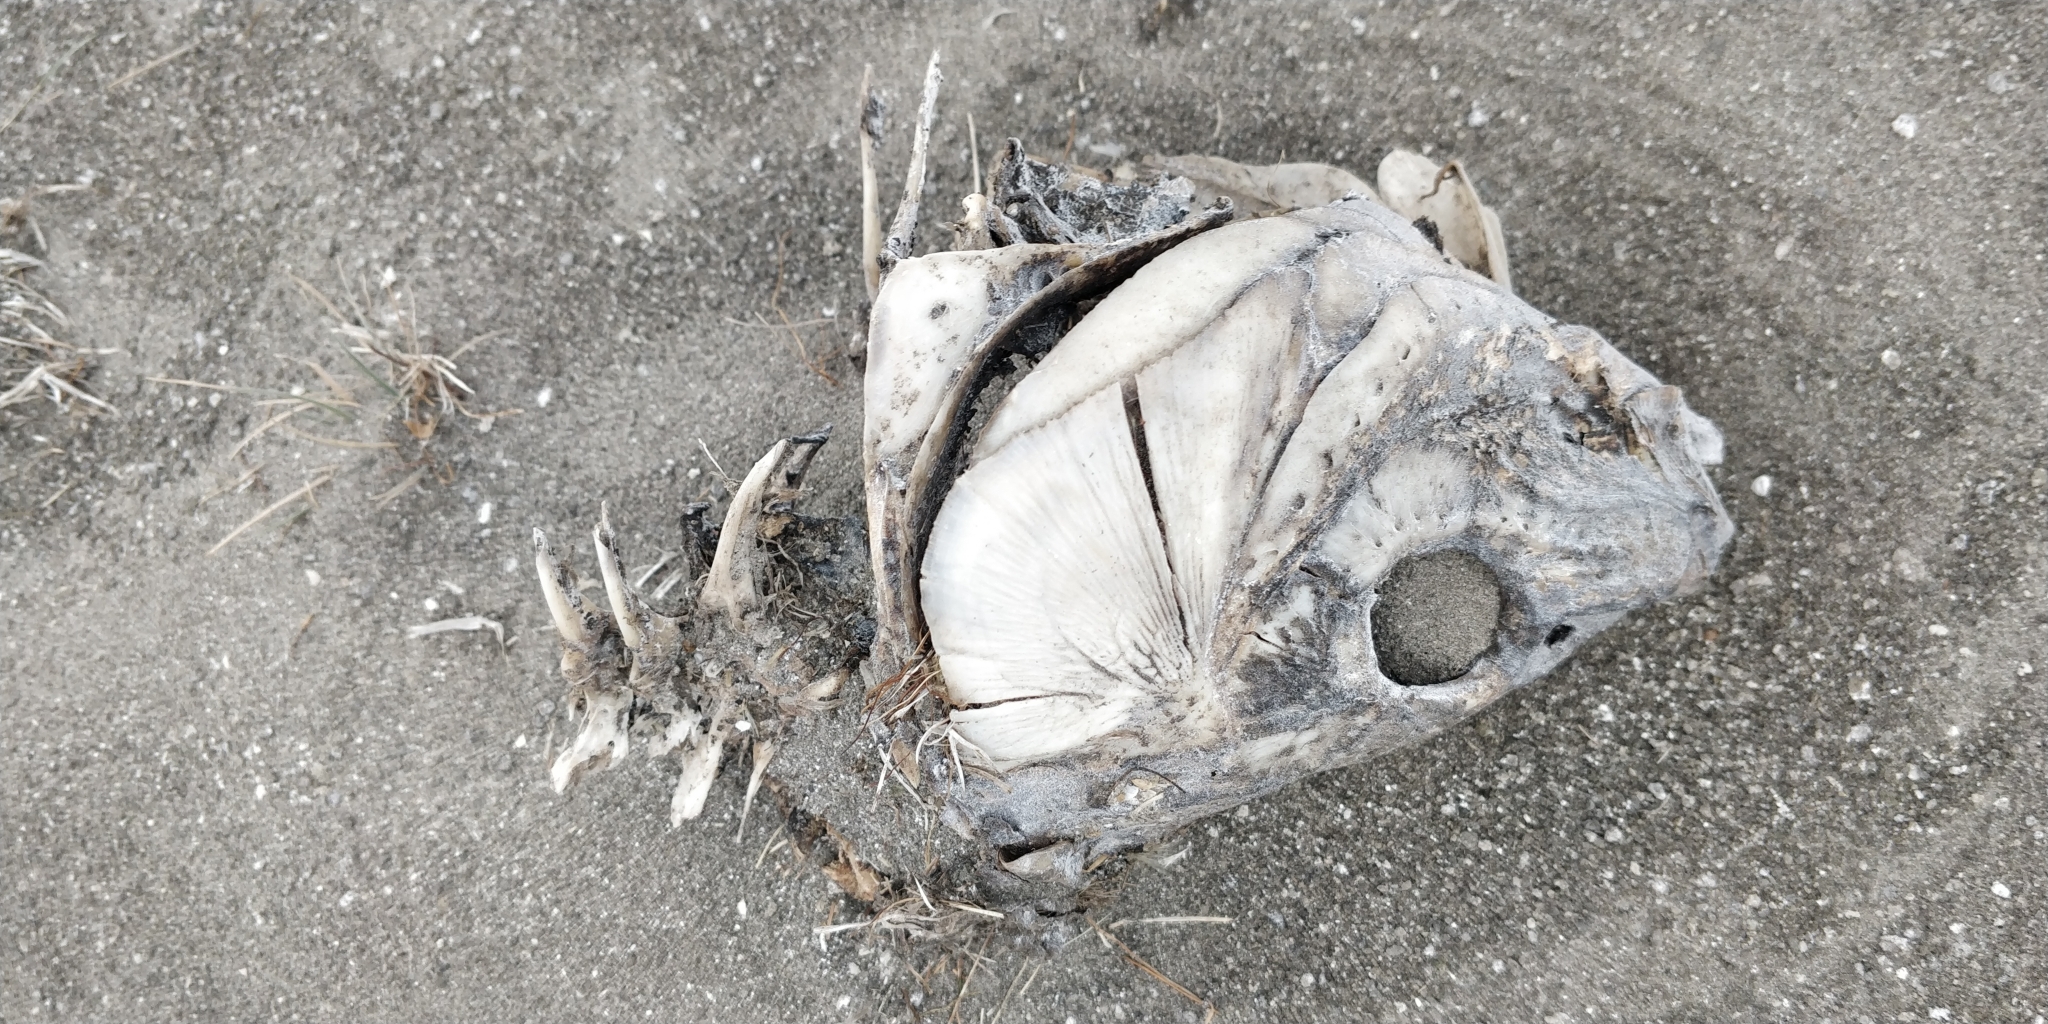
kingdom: Animalia
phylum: Chordata
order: Cypriniformes
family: Cyprinidae
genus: Cyprinus
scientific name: Cyprinus carpio
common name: Common carp
